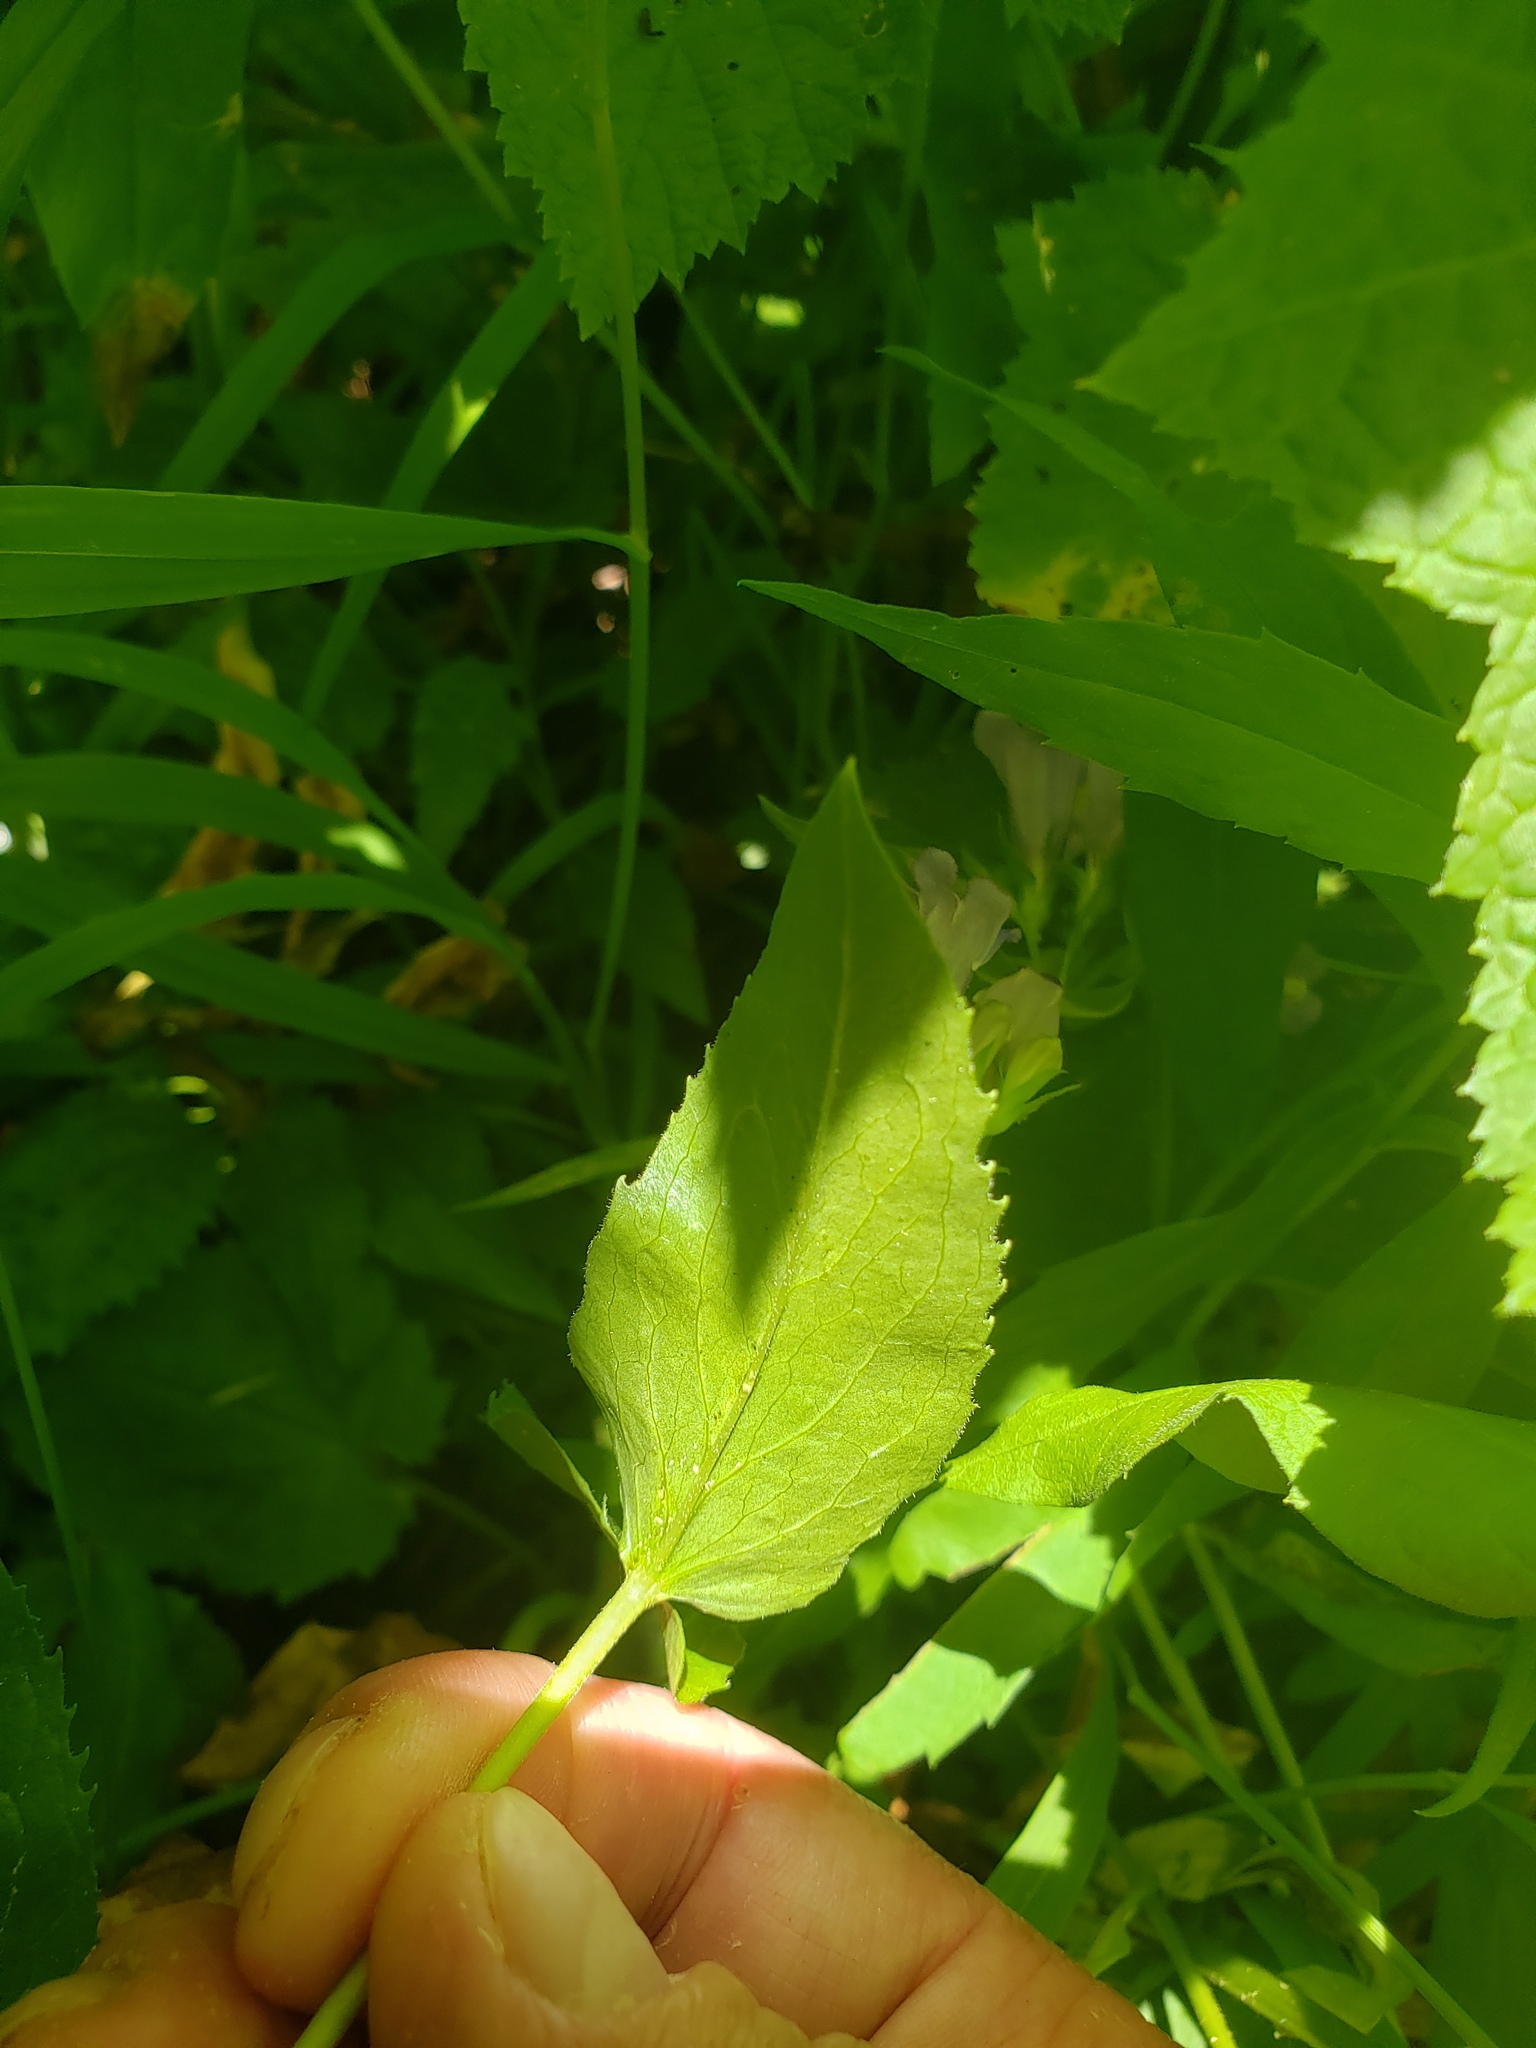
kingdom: Plantae
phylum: Tracheophyta
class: Magnoliopsida
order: Lamiales
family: Plantaginaceae
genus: Penstemon
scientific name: Penstemon serrulatus
